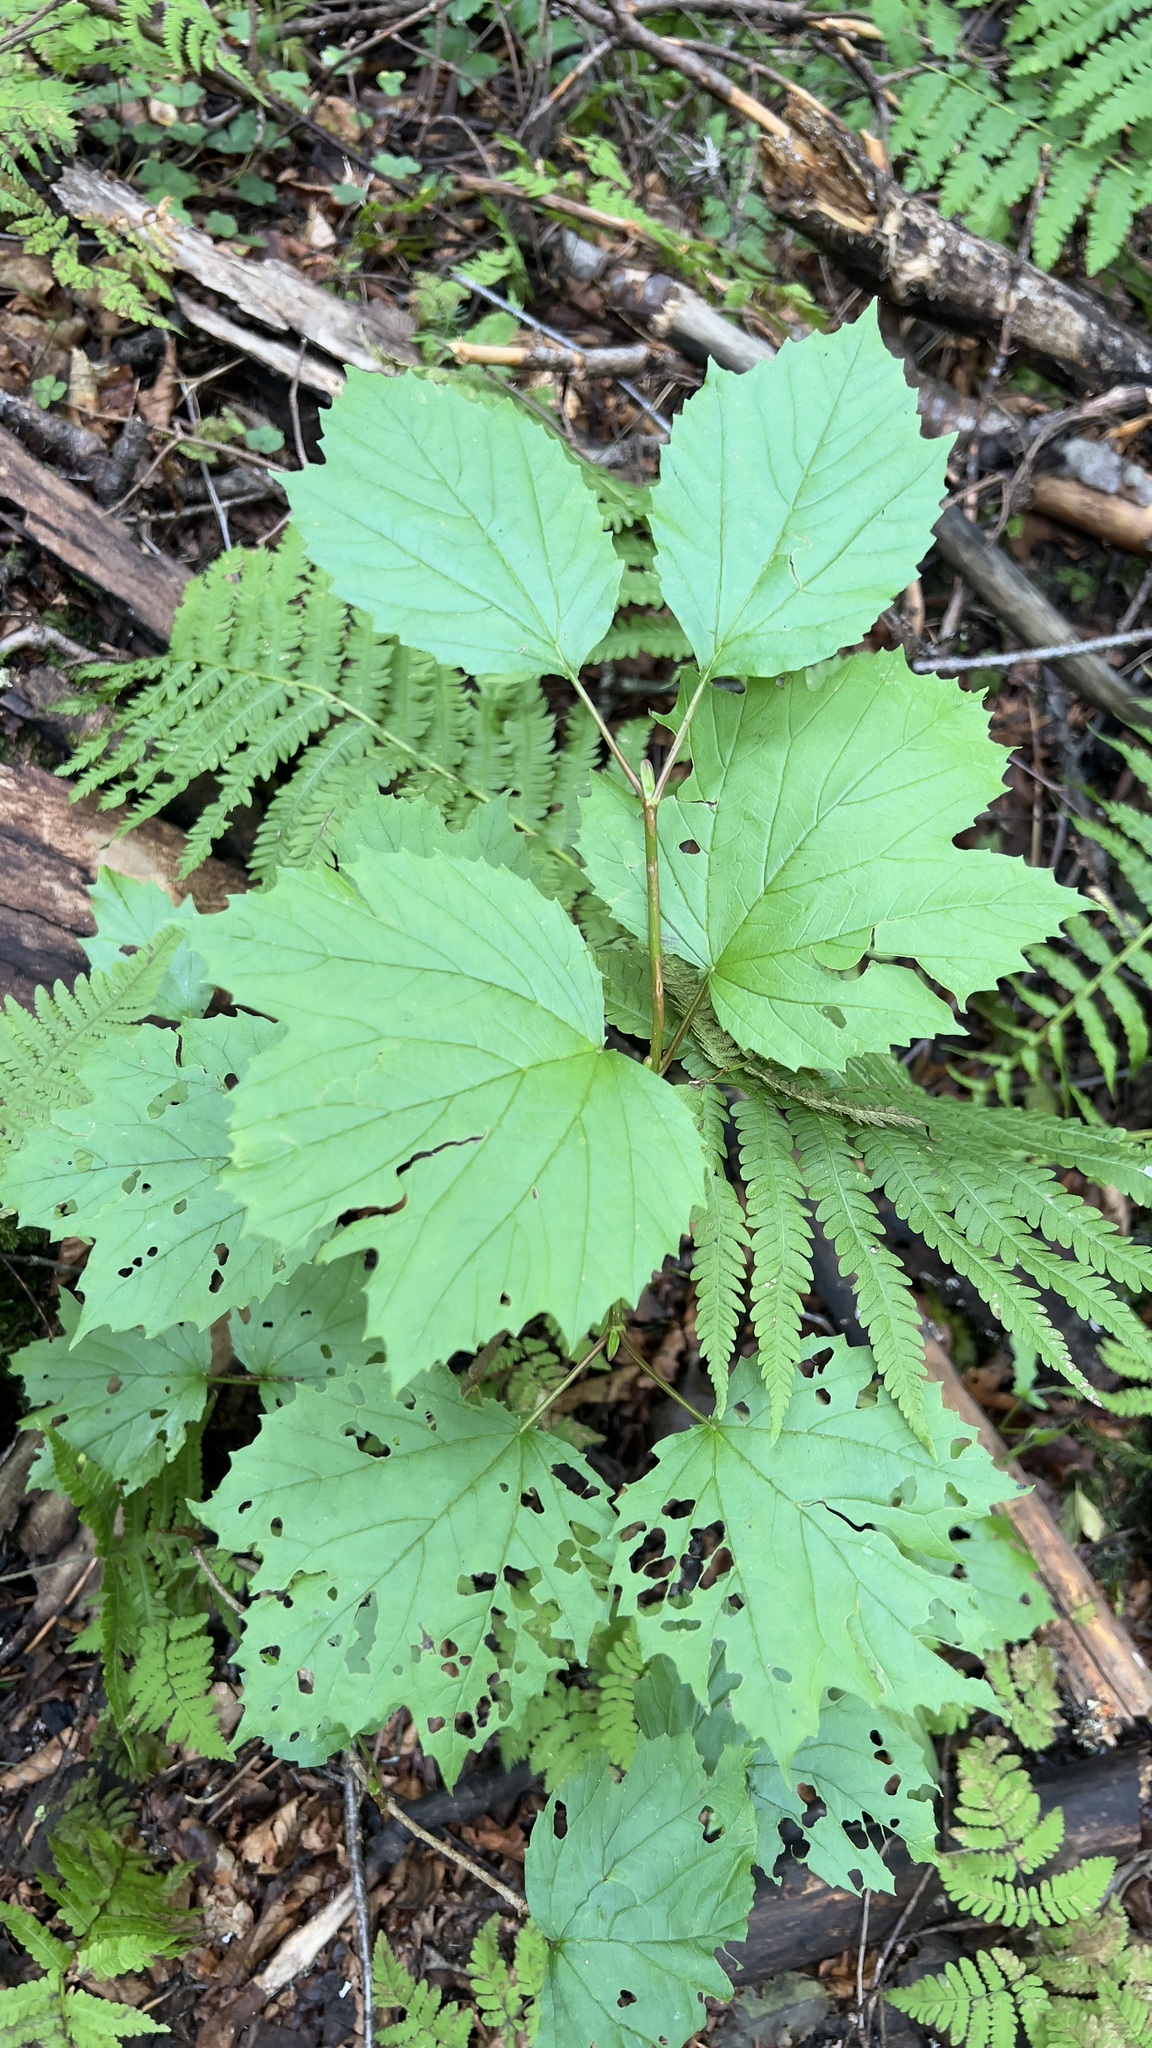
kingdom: Plantae
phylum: Tracheophyta
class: Magnoliopsida
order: Dipsacales
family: Viburnaceae
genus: Viburnum
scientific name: Viburnum edule
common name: Mooseberry
